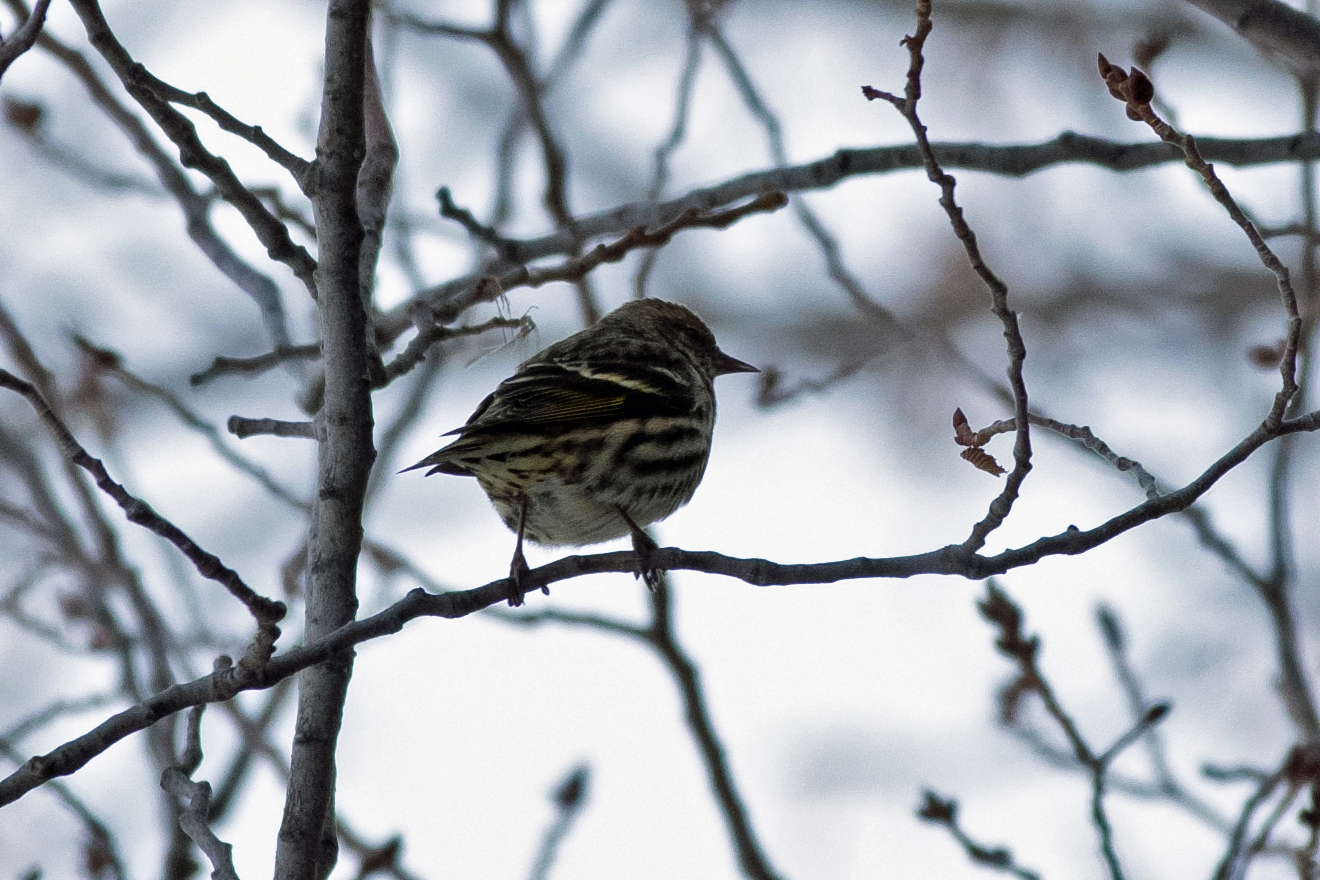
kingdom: Animalia
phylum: Chordata
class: Aves
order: Passeriformes
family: Fringillidae
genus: Spinus
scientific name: Spinus pinus
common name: Pine siskin
